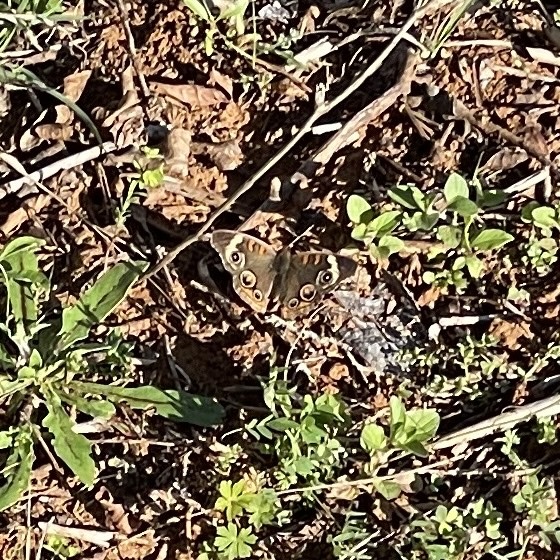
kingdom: Animalia
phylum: Arthropoda
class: Insecta
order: Lepidoptera
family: Nymphalidae
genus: Junonia
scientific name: Junonia coenia
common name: Common buckeye
